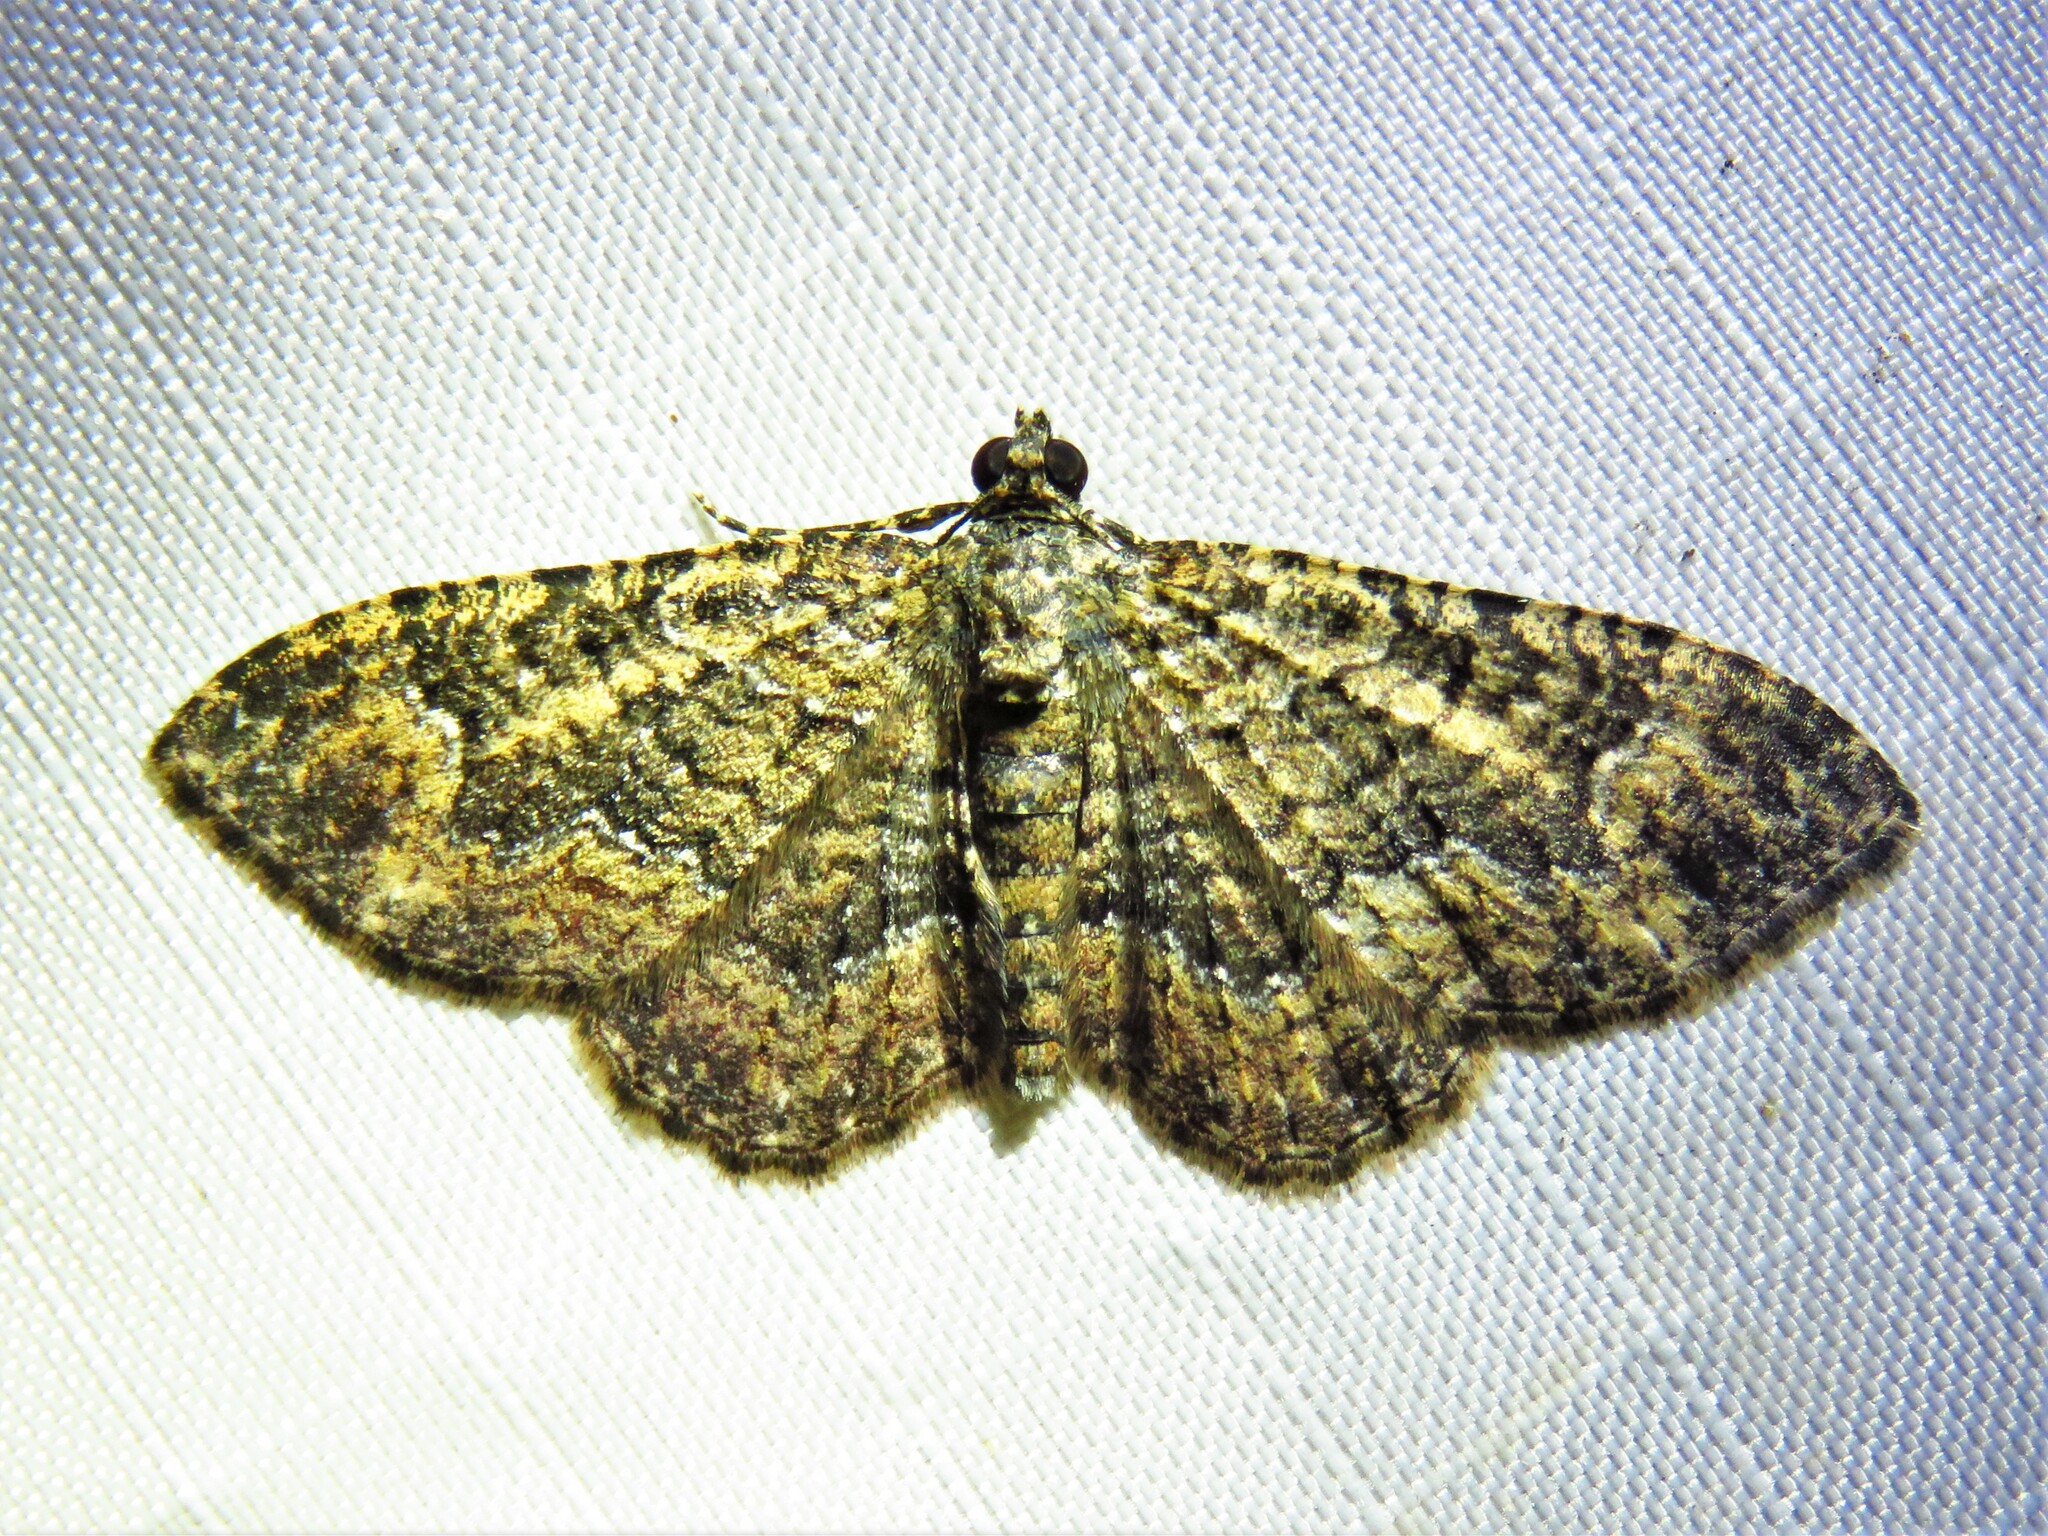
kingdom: Animalia
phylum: Arthropoda
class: Insecta
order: Lepidoptera
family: Geometridae
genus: Disclisioprocta
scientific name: Disclisioprocta stellata
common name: Somber carpet
